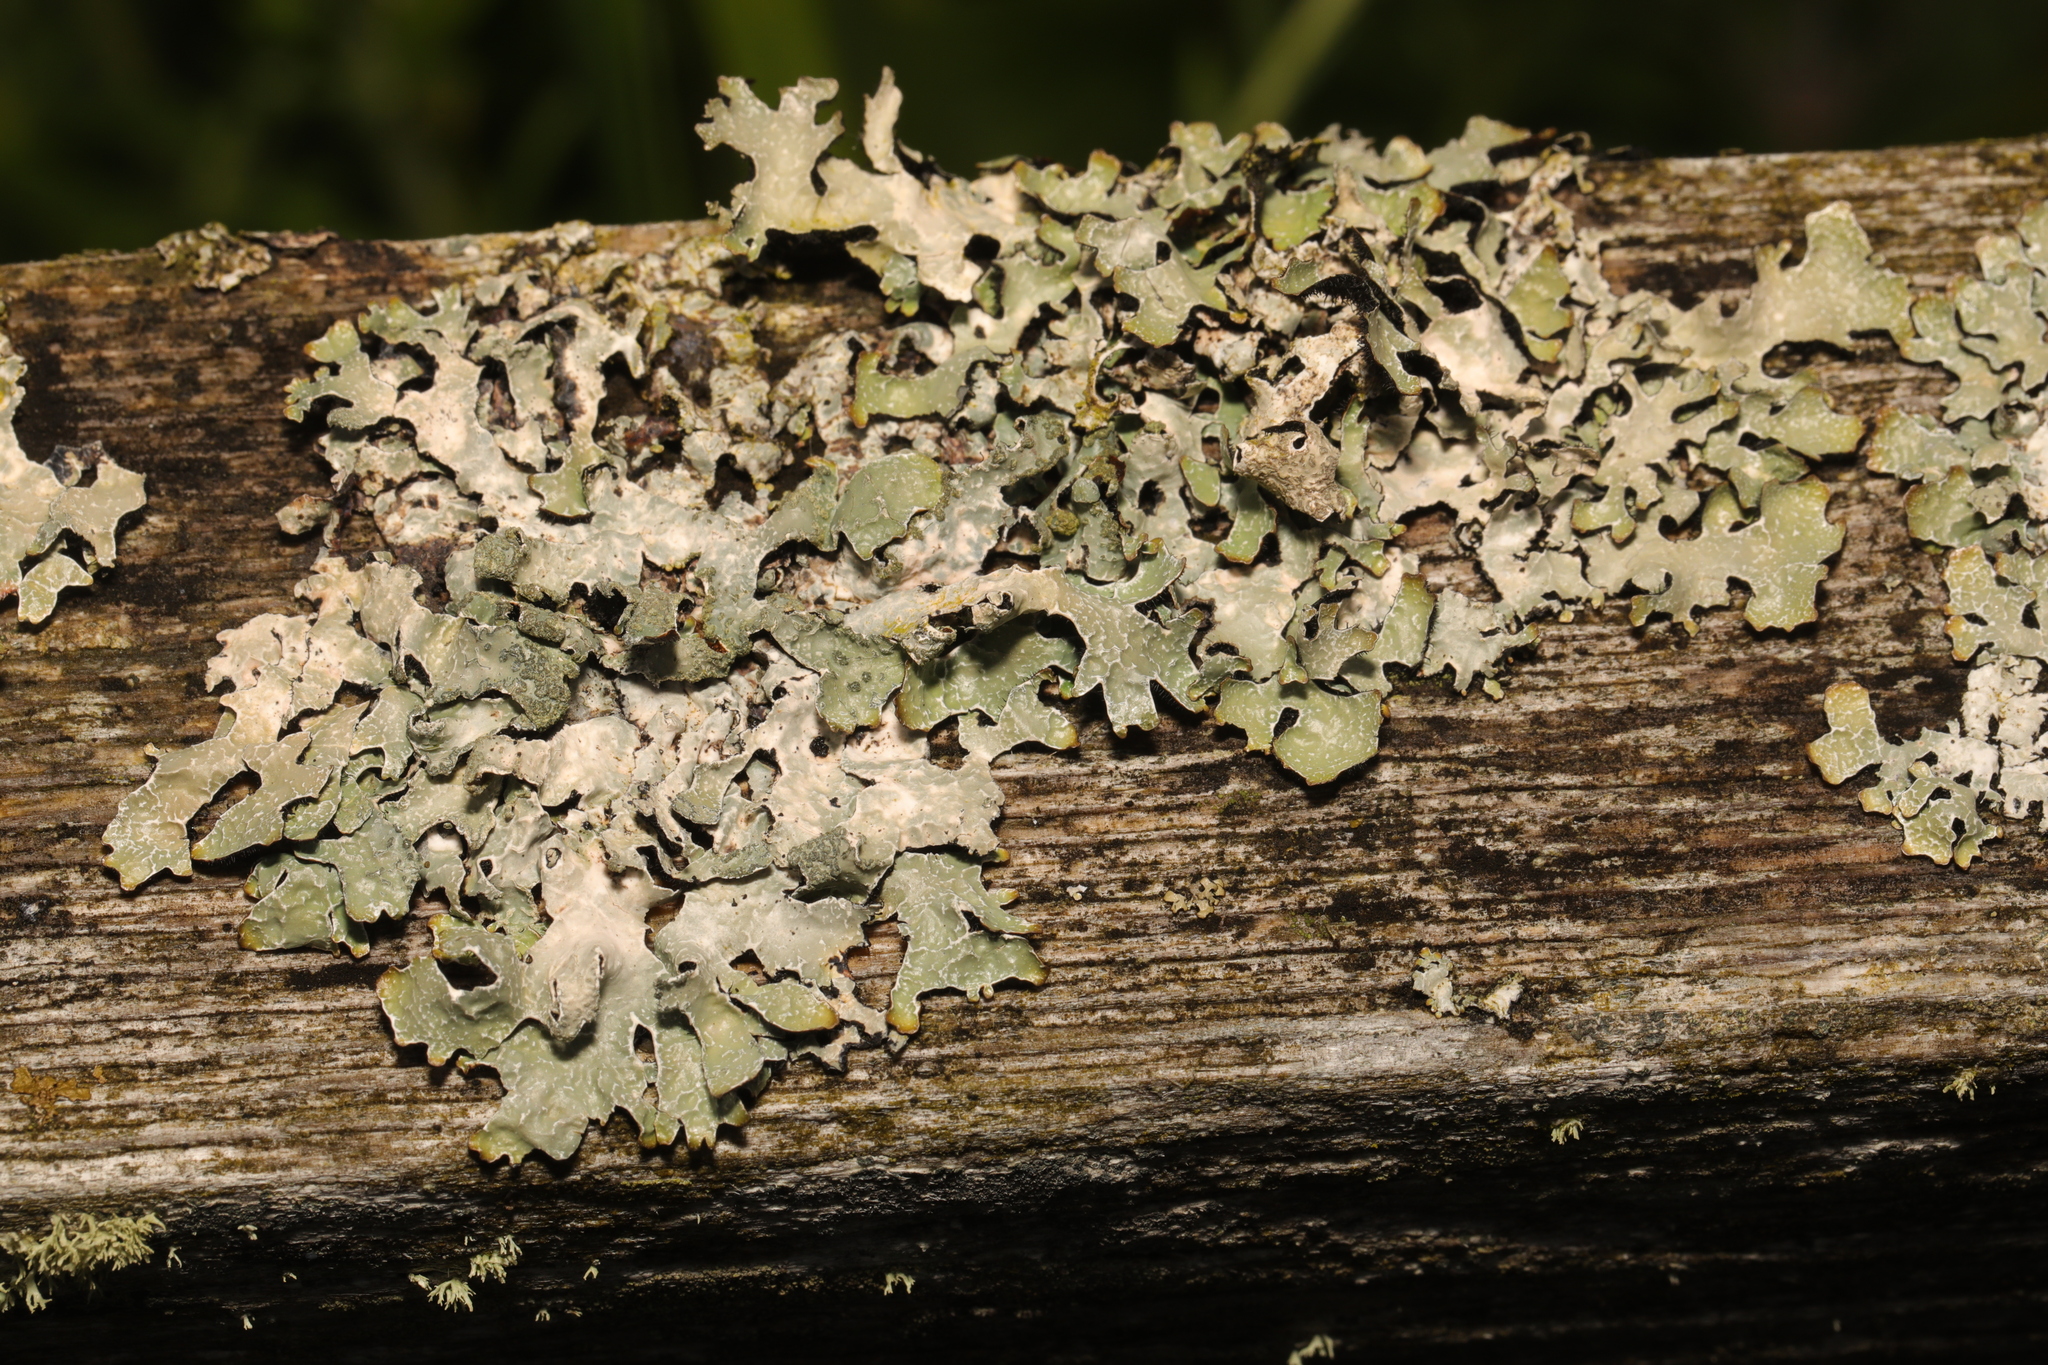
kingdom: Fungi
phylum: Ascomycota
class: Lecanoromycetes
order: Lecanorales
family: Parmeliaceae
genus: Parmelia
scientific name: Parmelia sulcata
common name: Netted shield lichen
